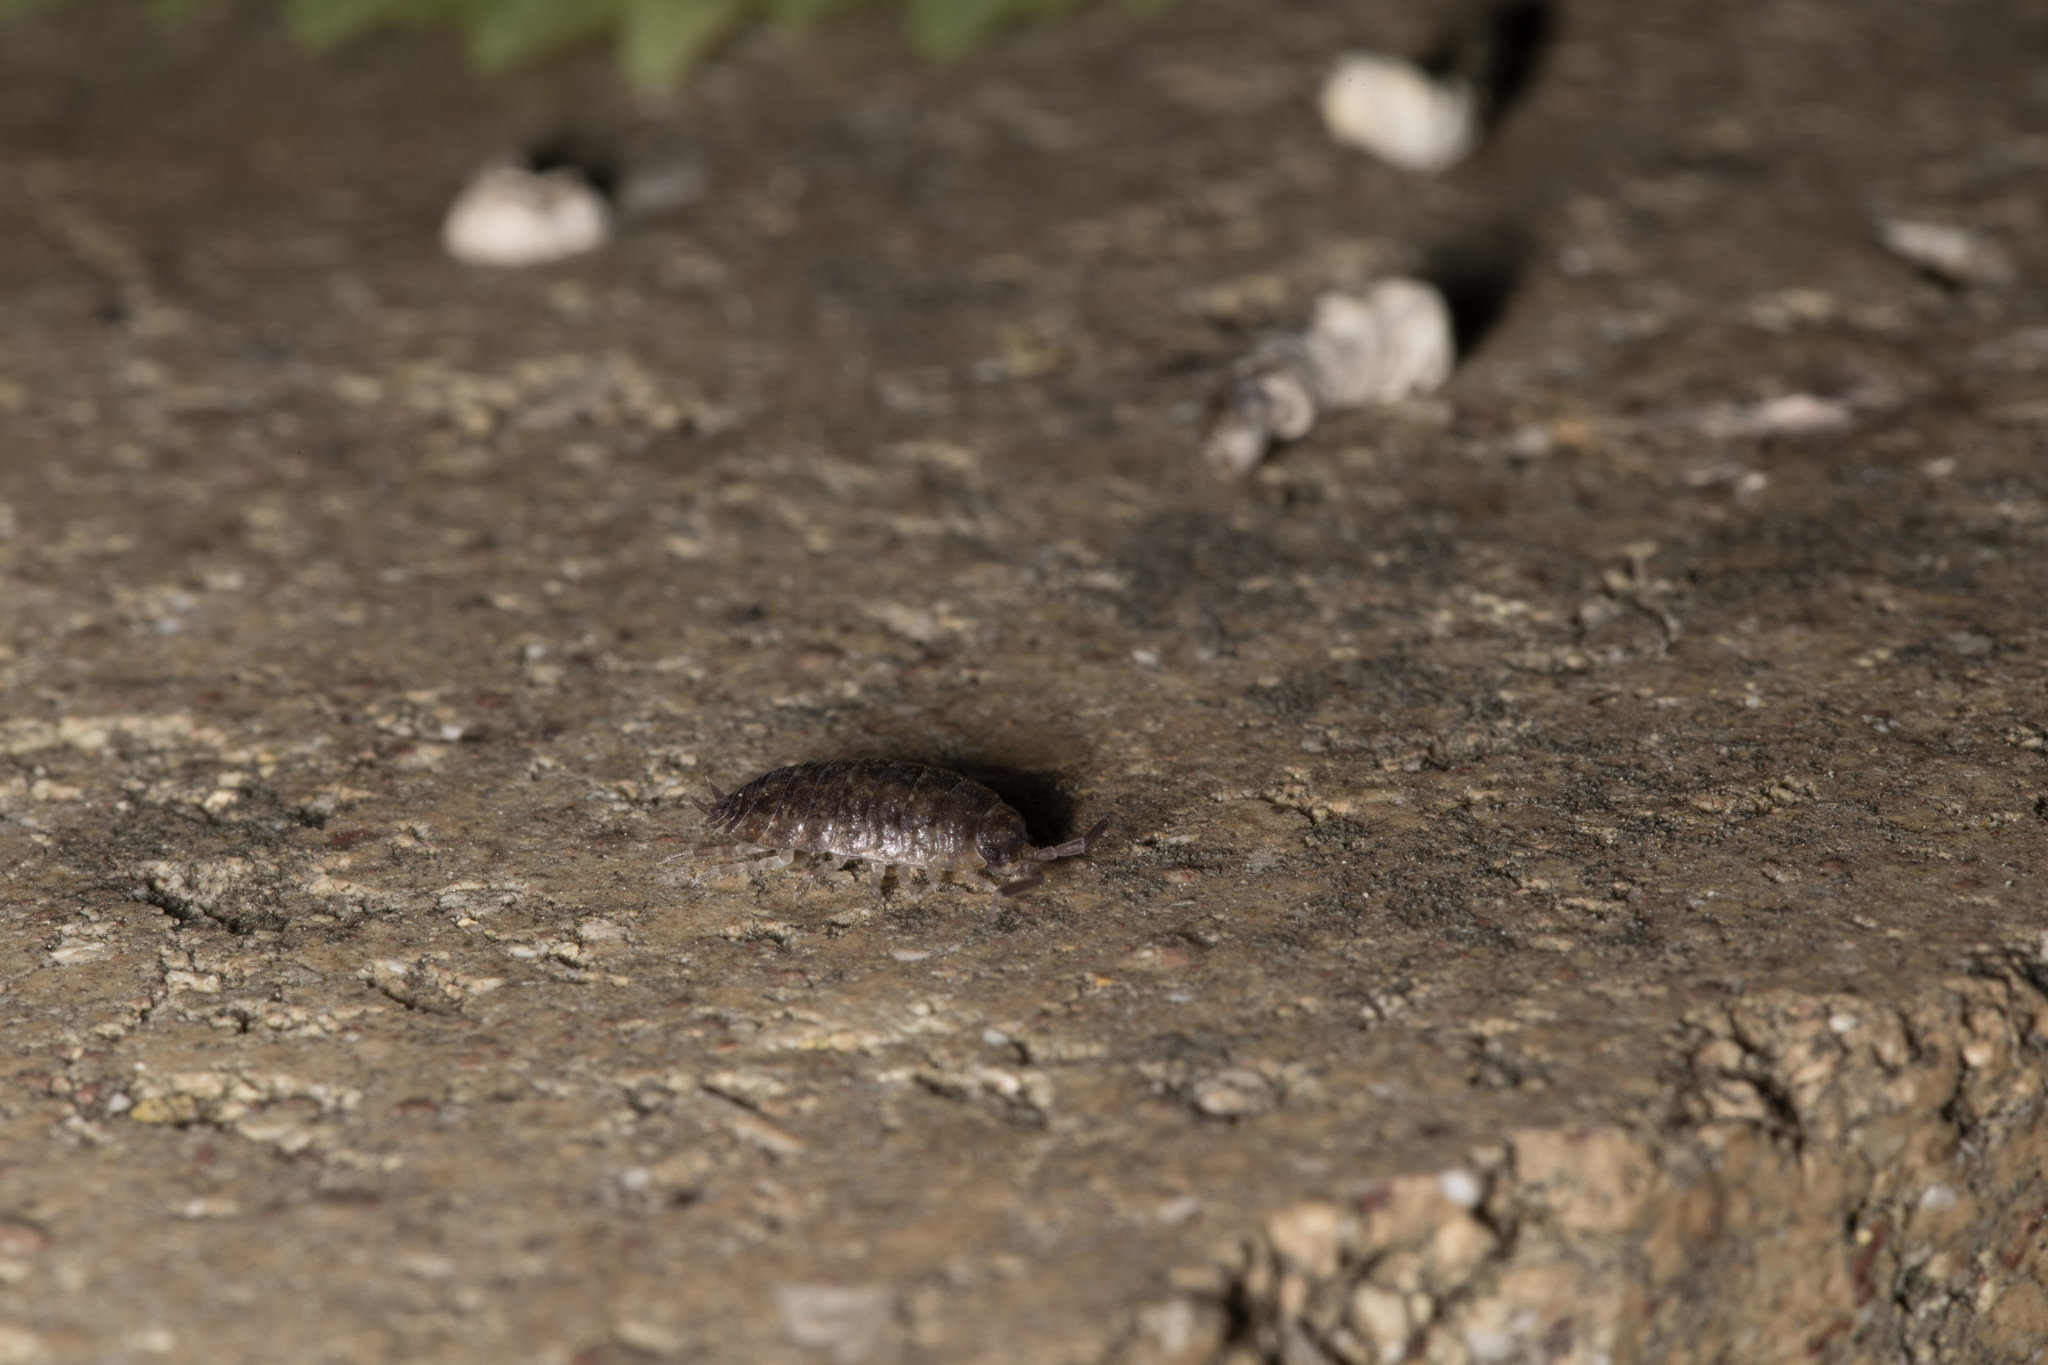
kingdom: Animalia
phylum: Arthropoda
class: Malacostraca
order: Isopoda
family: Porcellionidae
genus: Porcellio
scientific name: Porcellio scaber
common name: Common rough woodlouse
